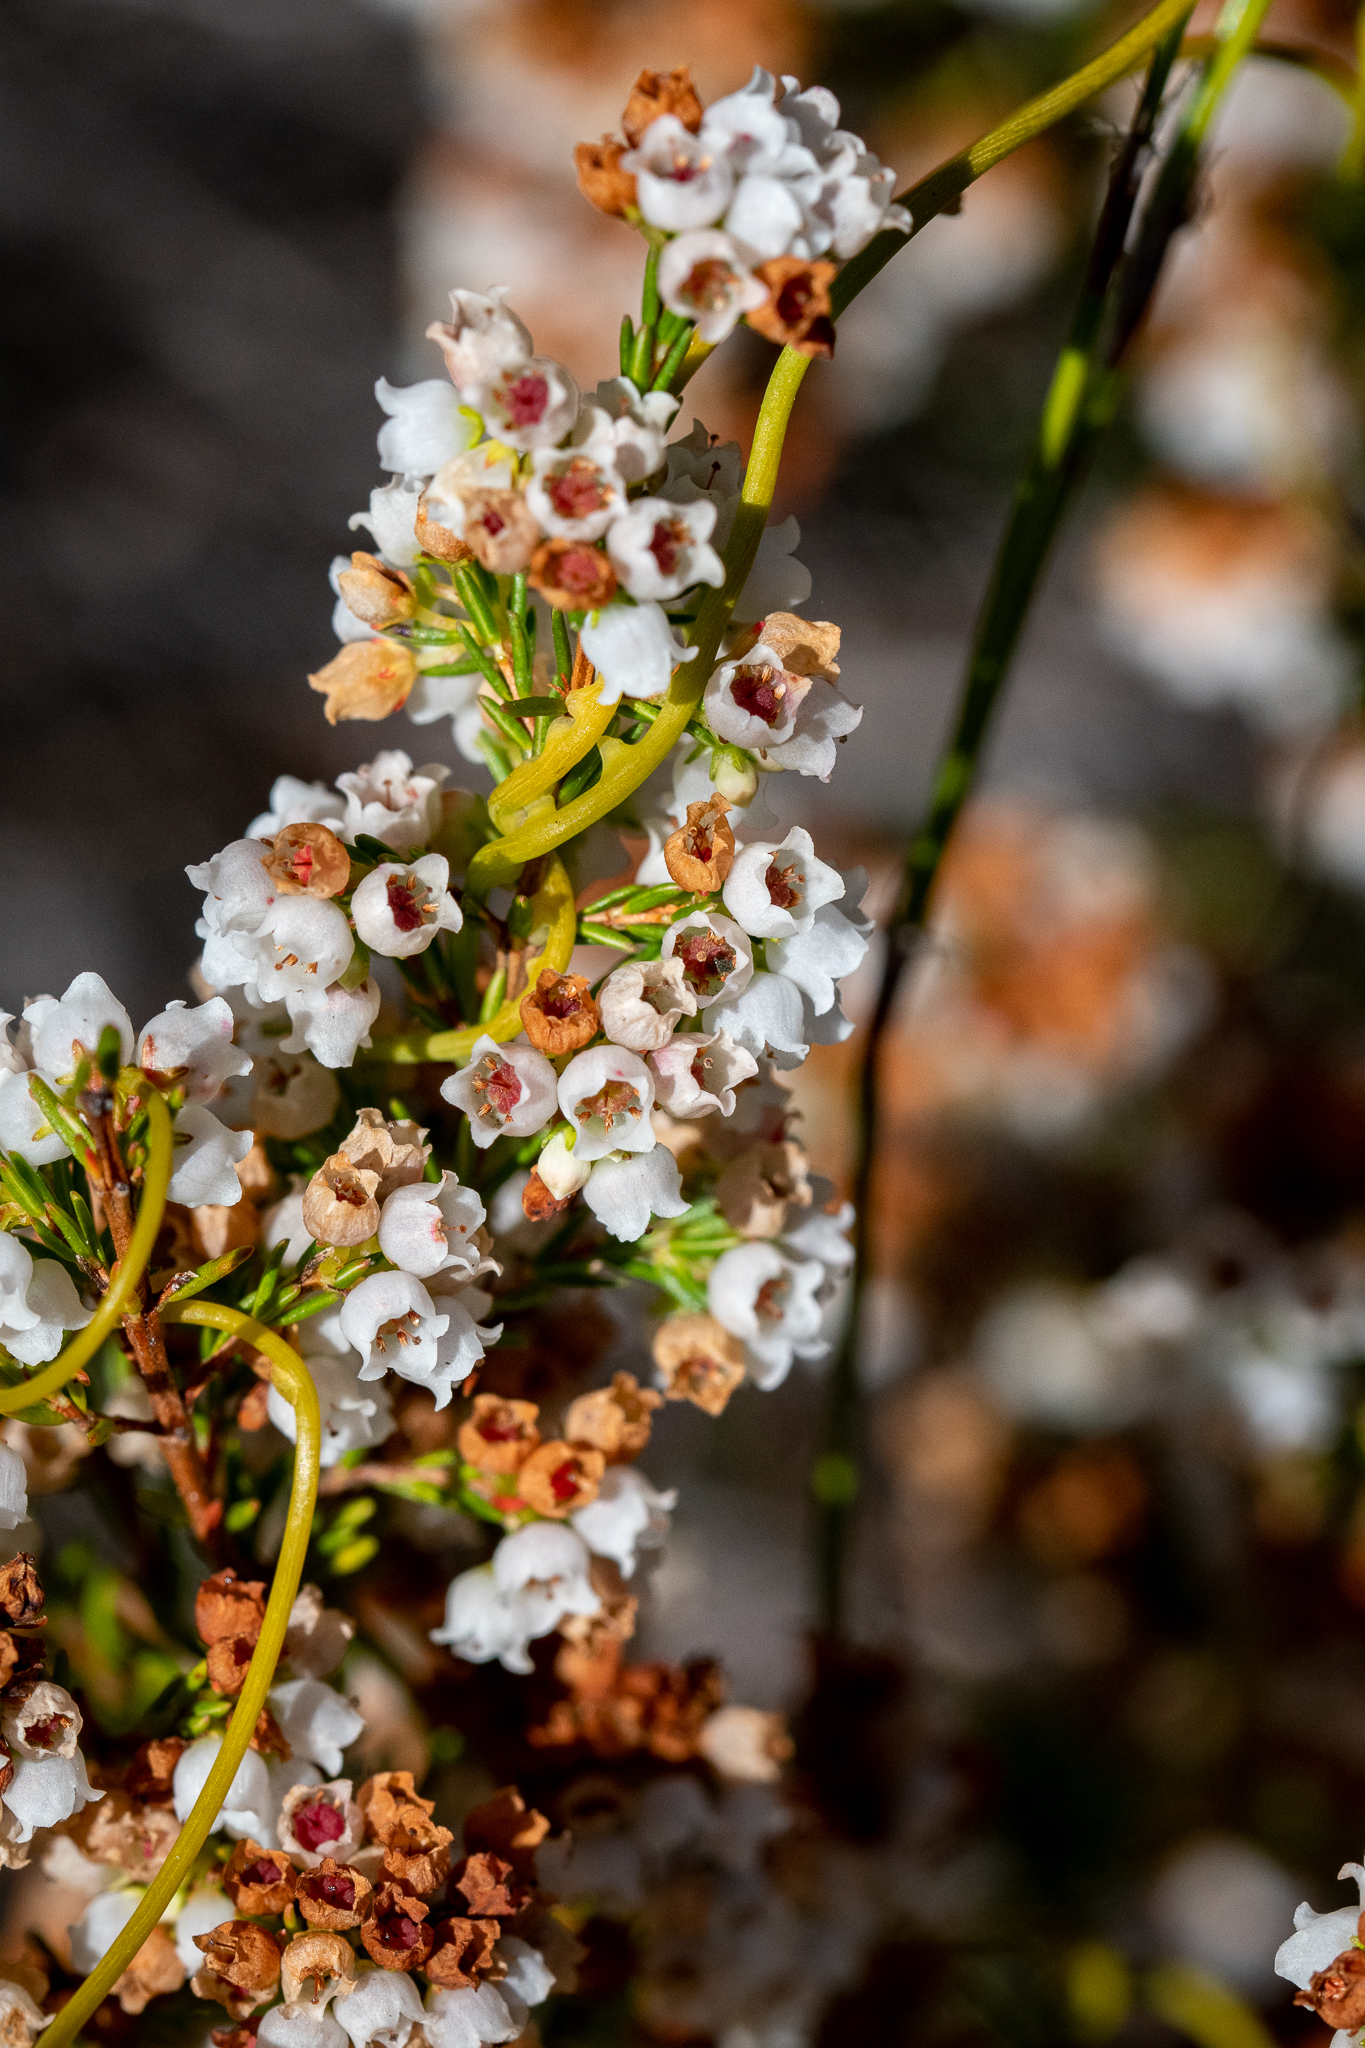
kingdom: Plantae
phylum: Tracheophyta
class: Magnoliopsida
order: Ericales
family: Ericaceae
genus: Erica
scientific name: Erica subdivaricata
